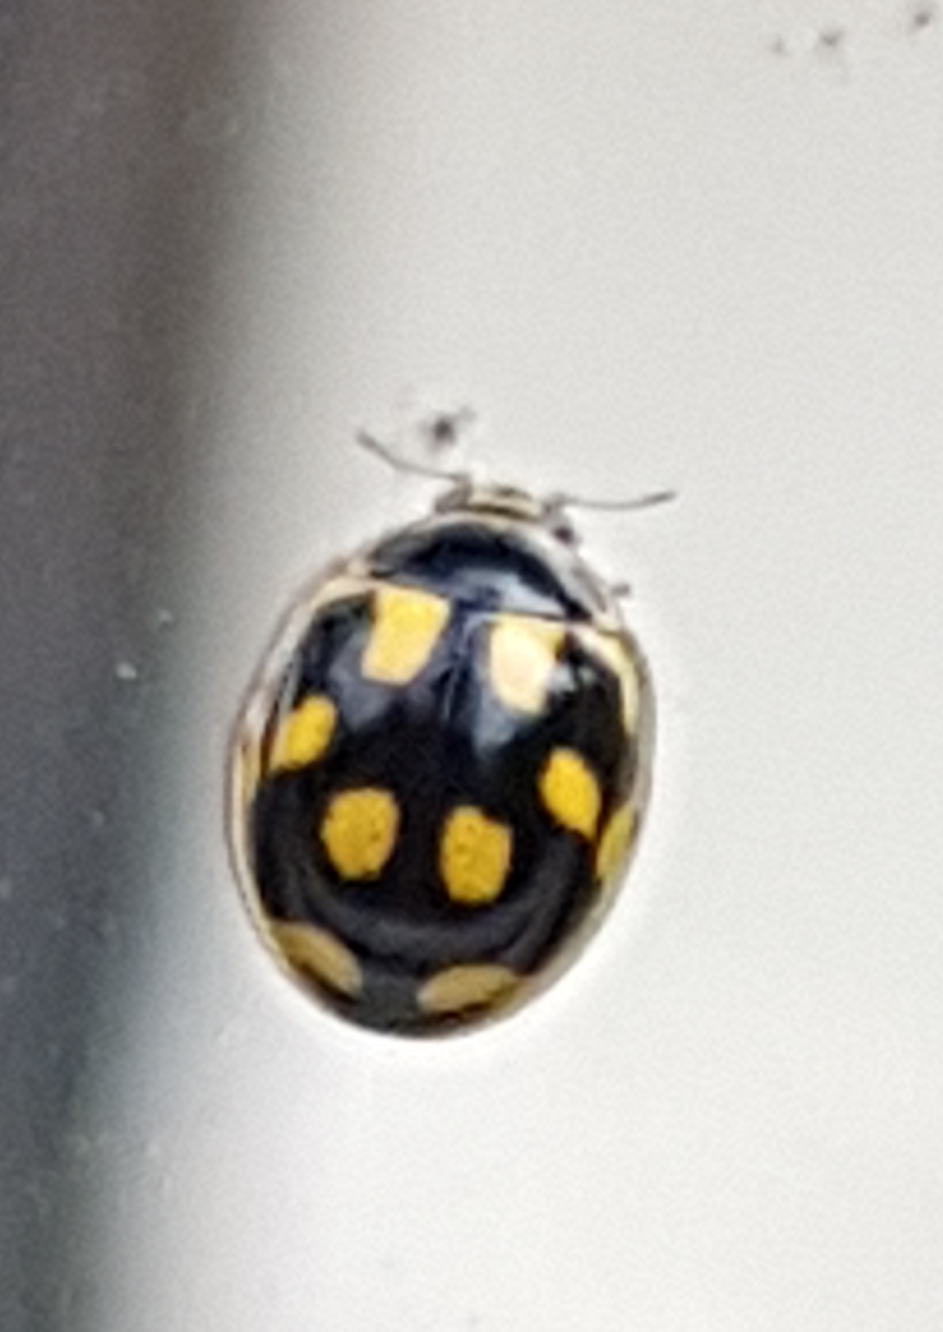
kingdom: Animalia
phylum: Arthropoda
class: Insecta
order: Coleoptera
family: Coccinellidae
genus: Propylaea
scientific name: Propylaea quatuordecimpunctata
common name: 14-spotted ladybird beetle
